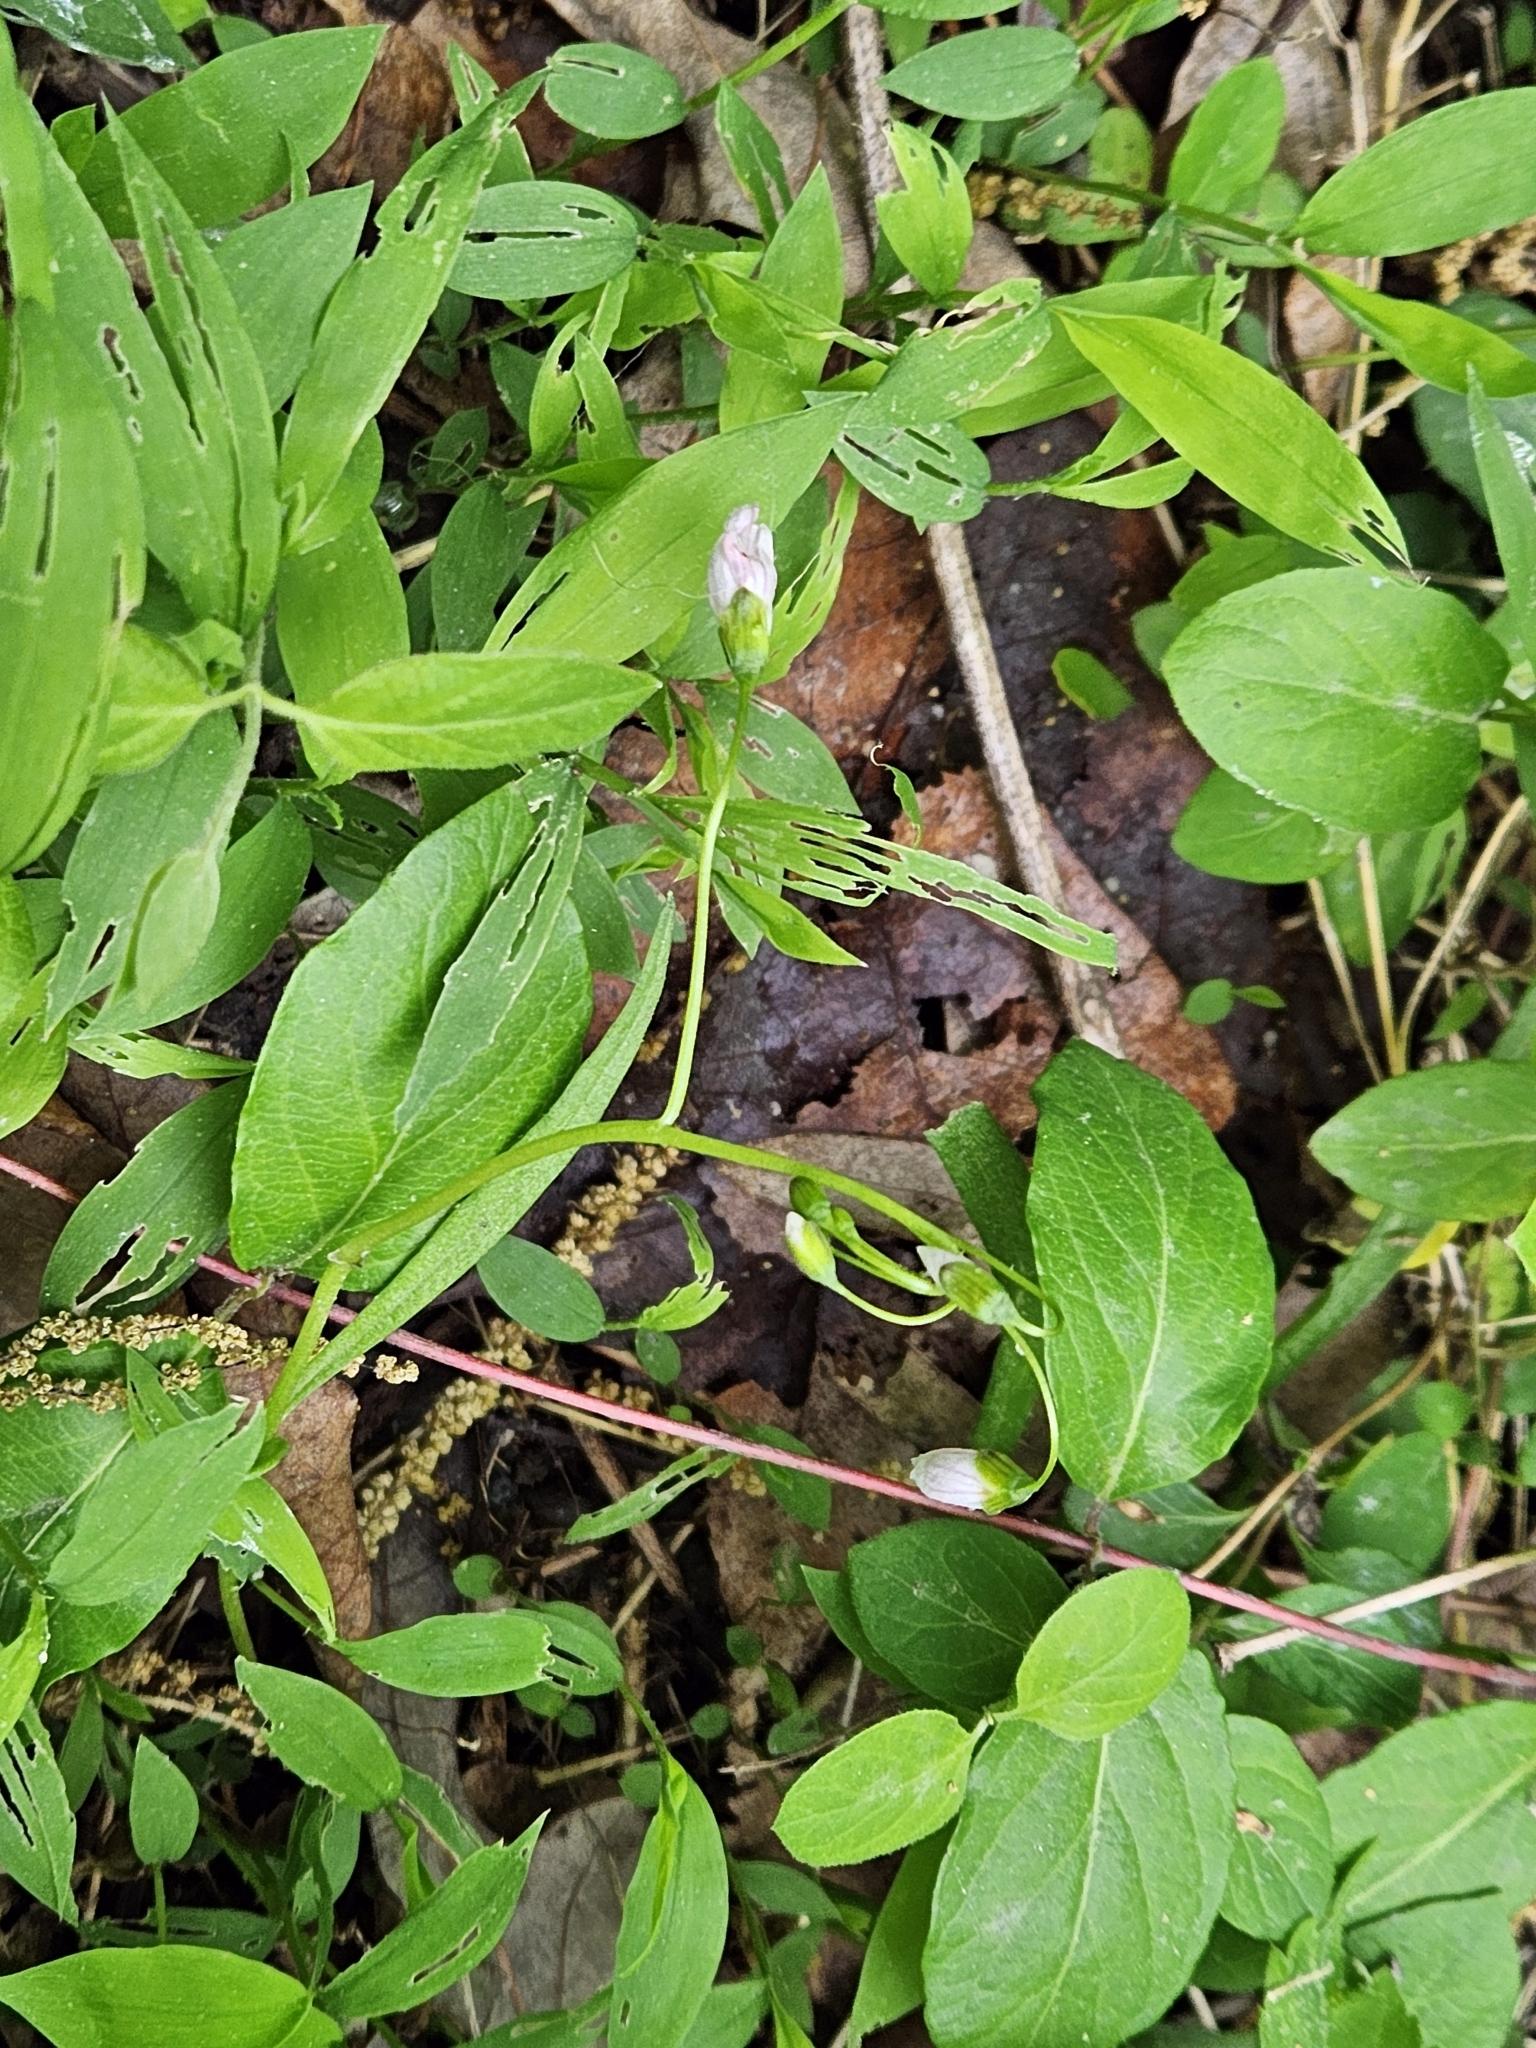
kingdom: Plantae
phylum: Tracheophyta
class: Magnoliopsida
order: Caryophyllales
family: Montiaceae
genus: Claytonia
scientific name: Claytonia virginica
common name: Virginia springbeauty
